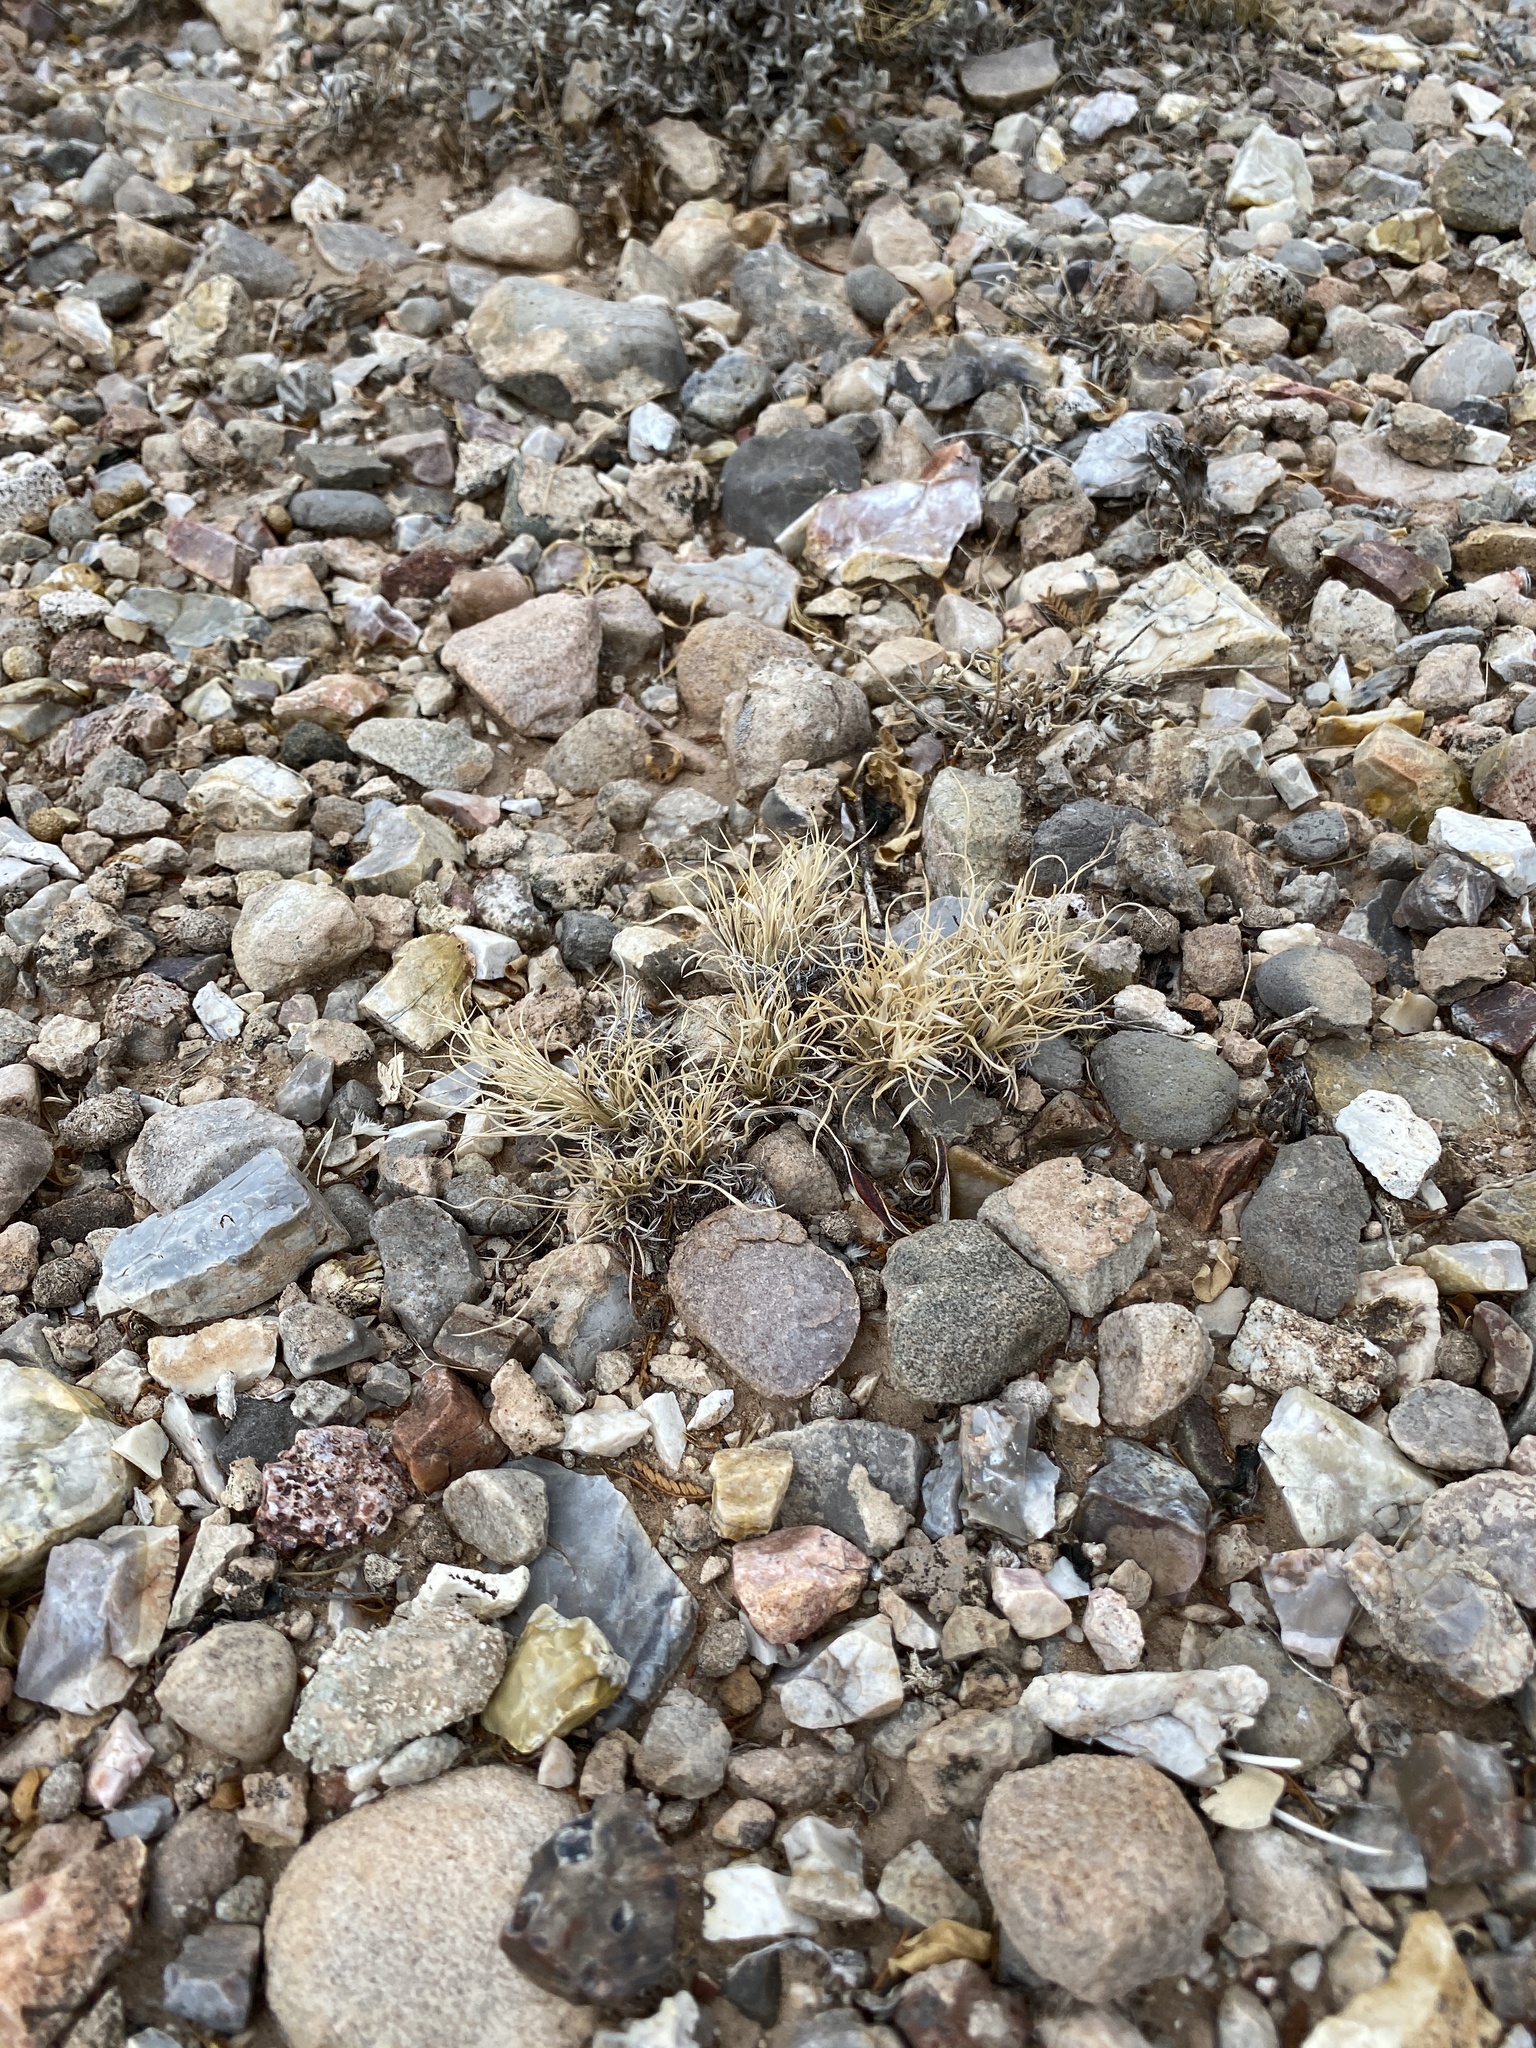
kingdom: Plantae
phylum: Tracheophyta
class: Liliopsida
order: Poales
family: Poaceae
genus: Dasyochloa
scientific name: Dasyochloa pulchella
